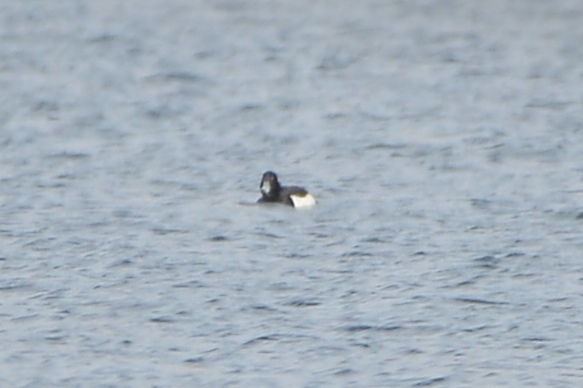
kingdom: Animalia
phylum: Chordata
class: Aves
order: Anseriformes
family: Anatidae
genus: Aythya
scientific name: Aythya fuligula
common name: Tufted duck
